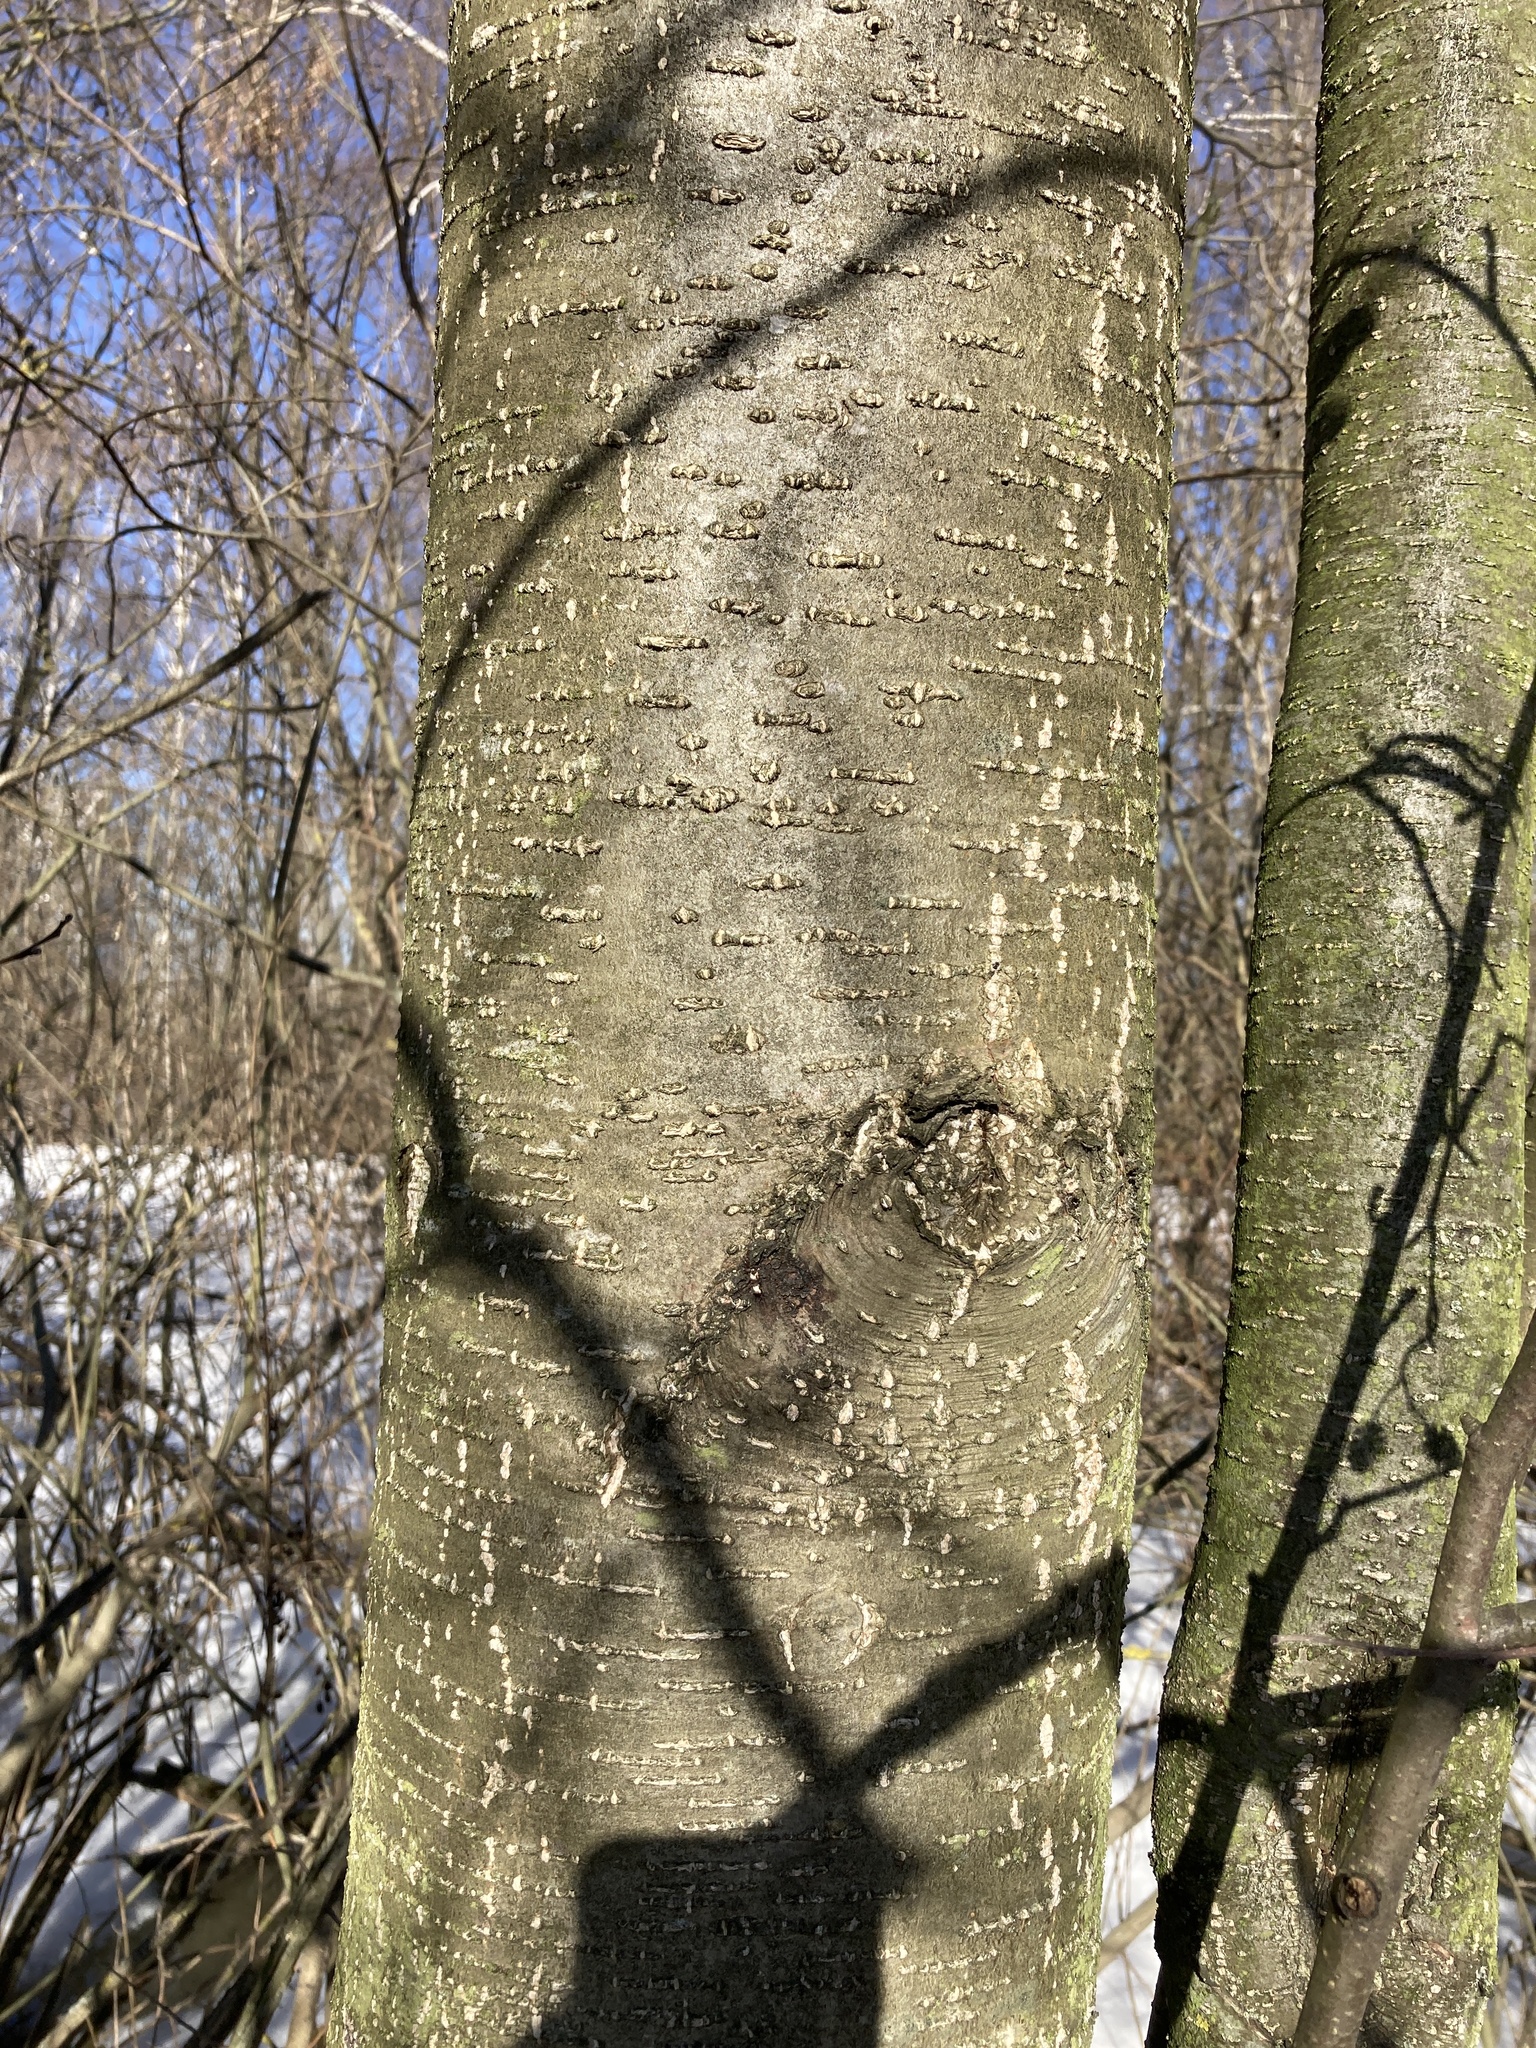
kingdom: Plantae
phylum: Tracheophyta
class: Magnoliopsida
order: Fagales
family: Betulaceae
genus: Alnus
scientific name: Alnus glutinosa
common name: Black alder
